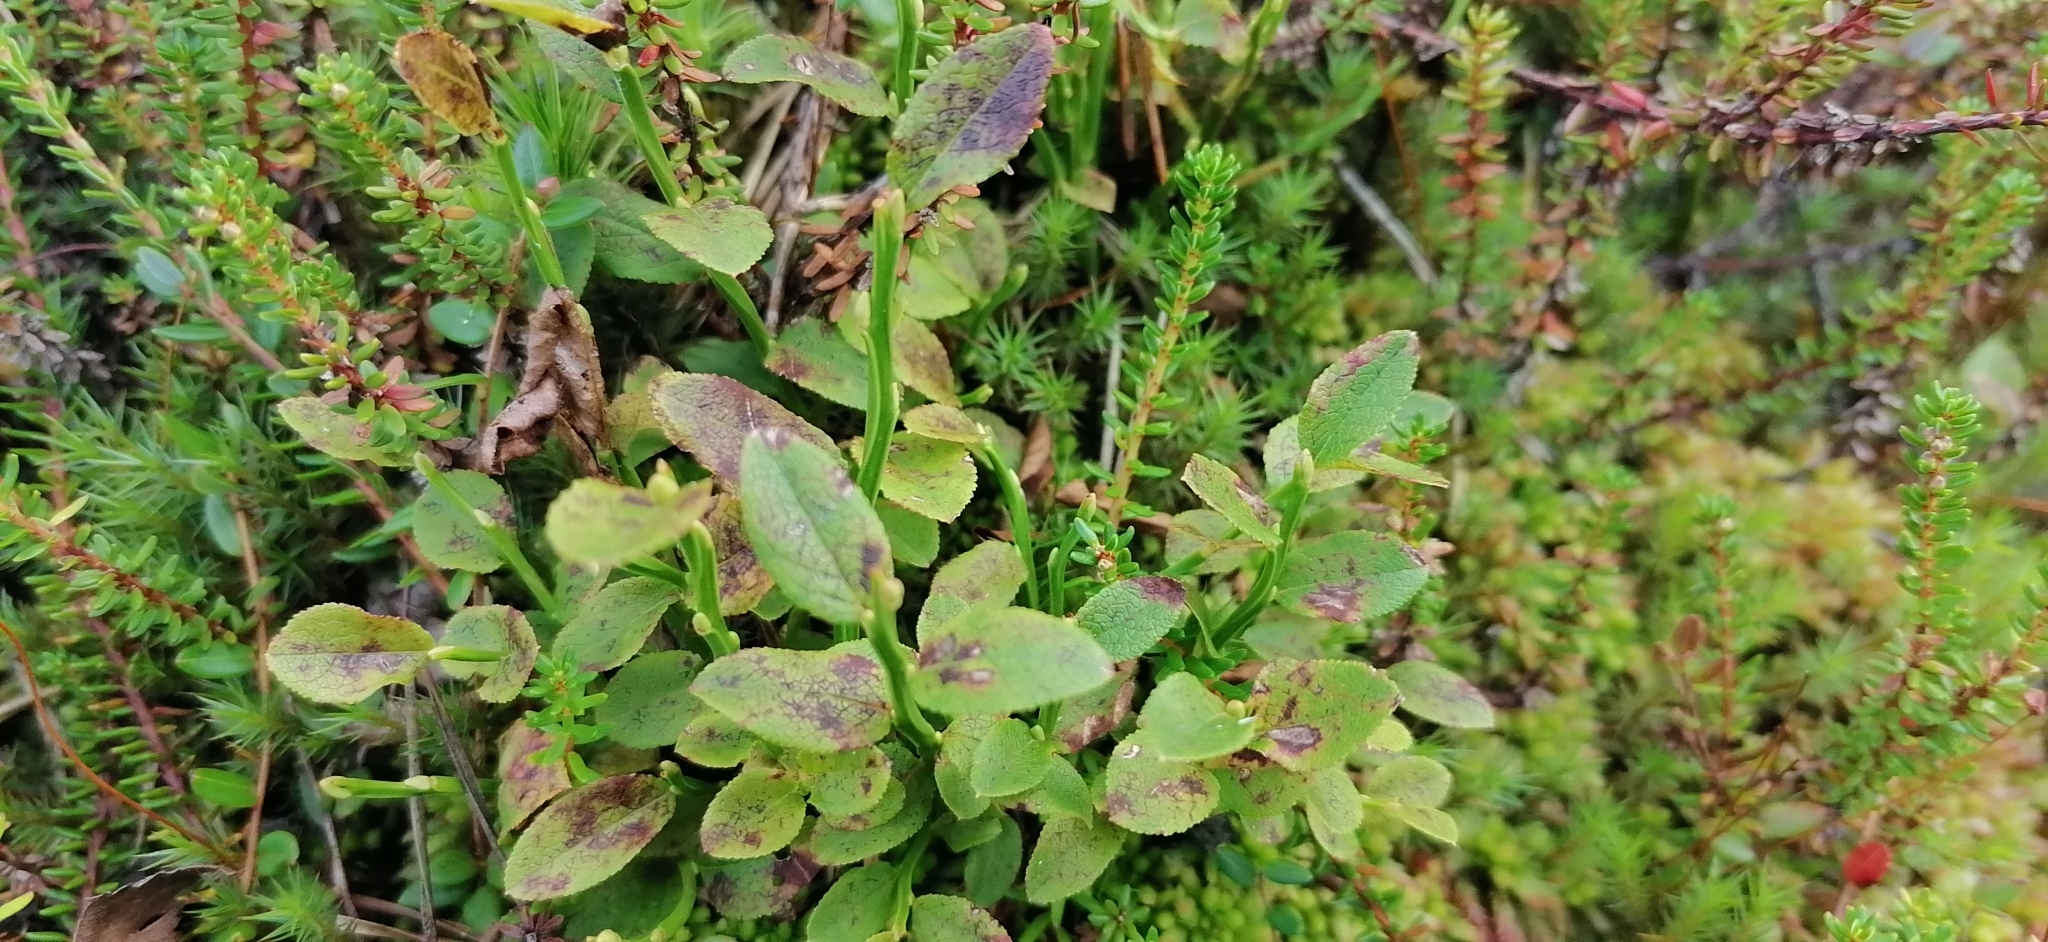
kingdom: Plantae
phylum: Tracheophyta
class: Magnoliopsida
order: Ericales
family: Ericaceae
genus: Vaccinium
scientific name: Vaccinium myrtillus
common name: Bilberry
